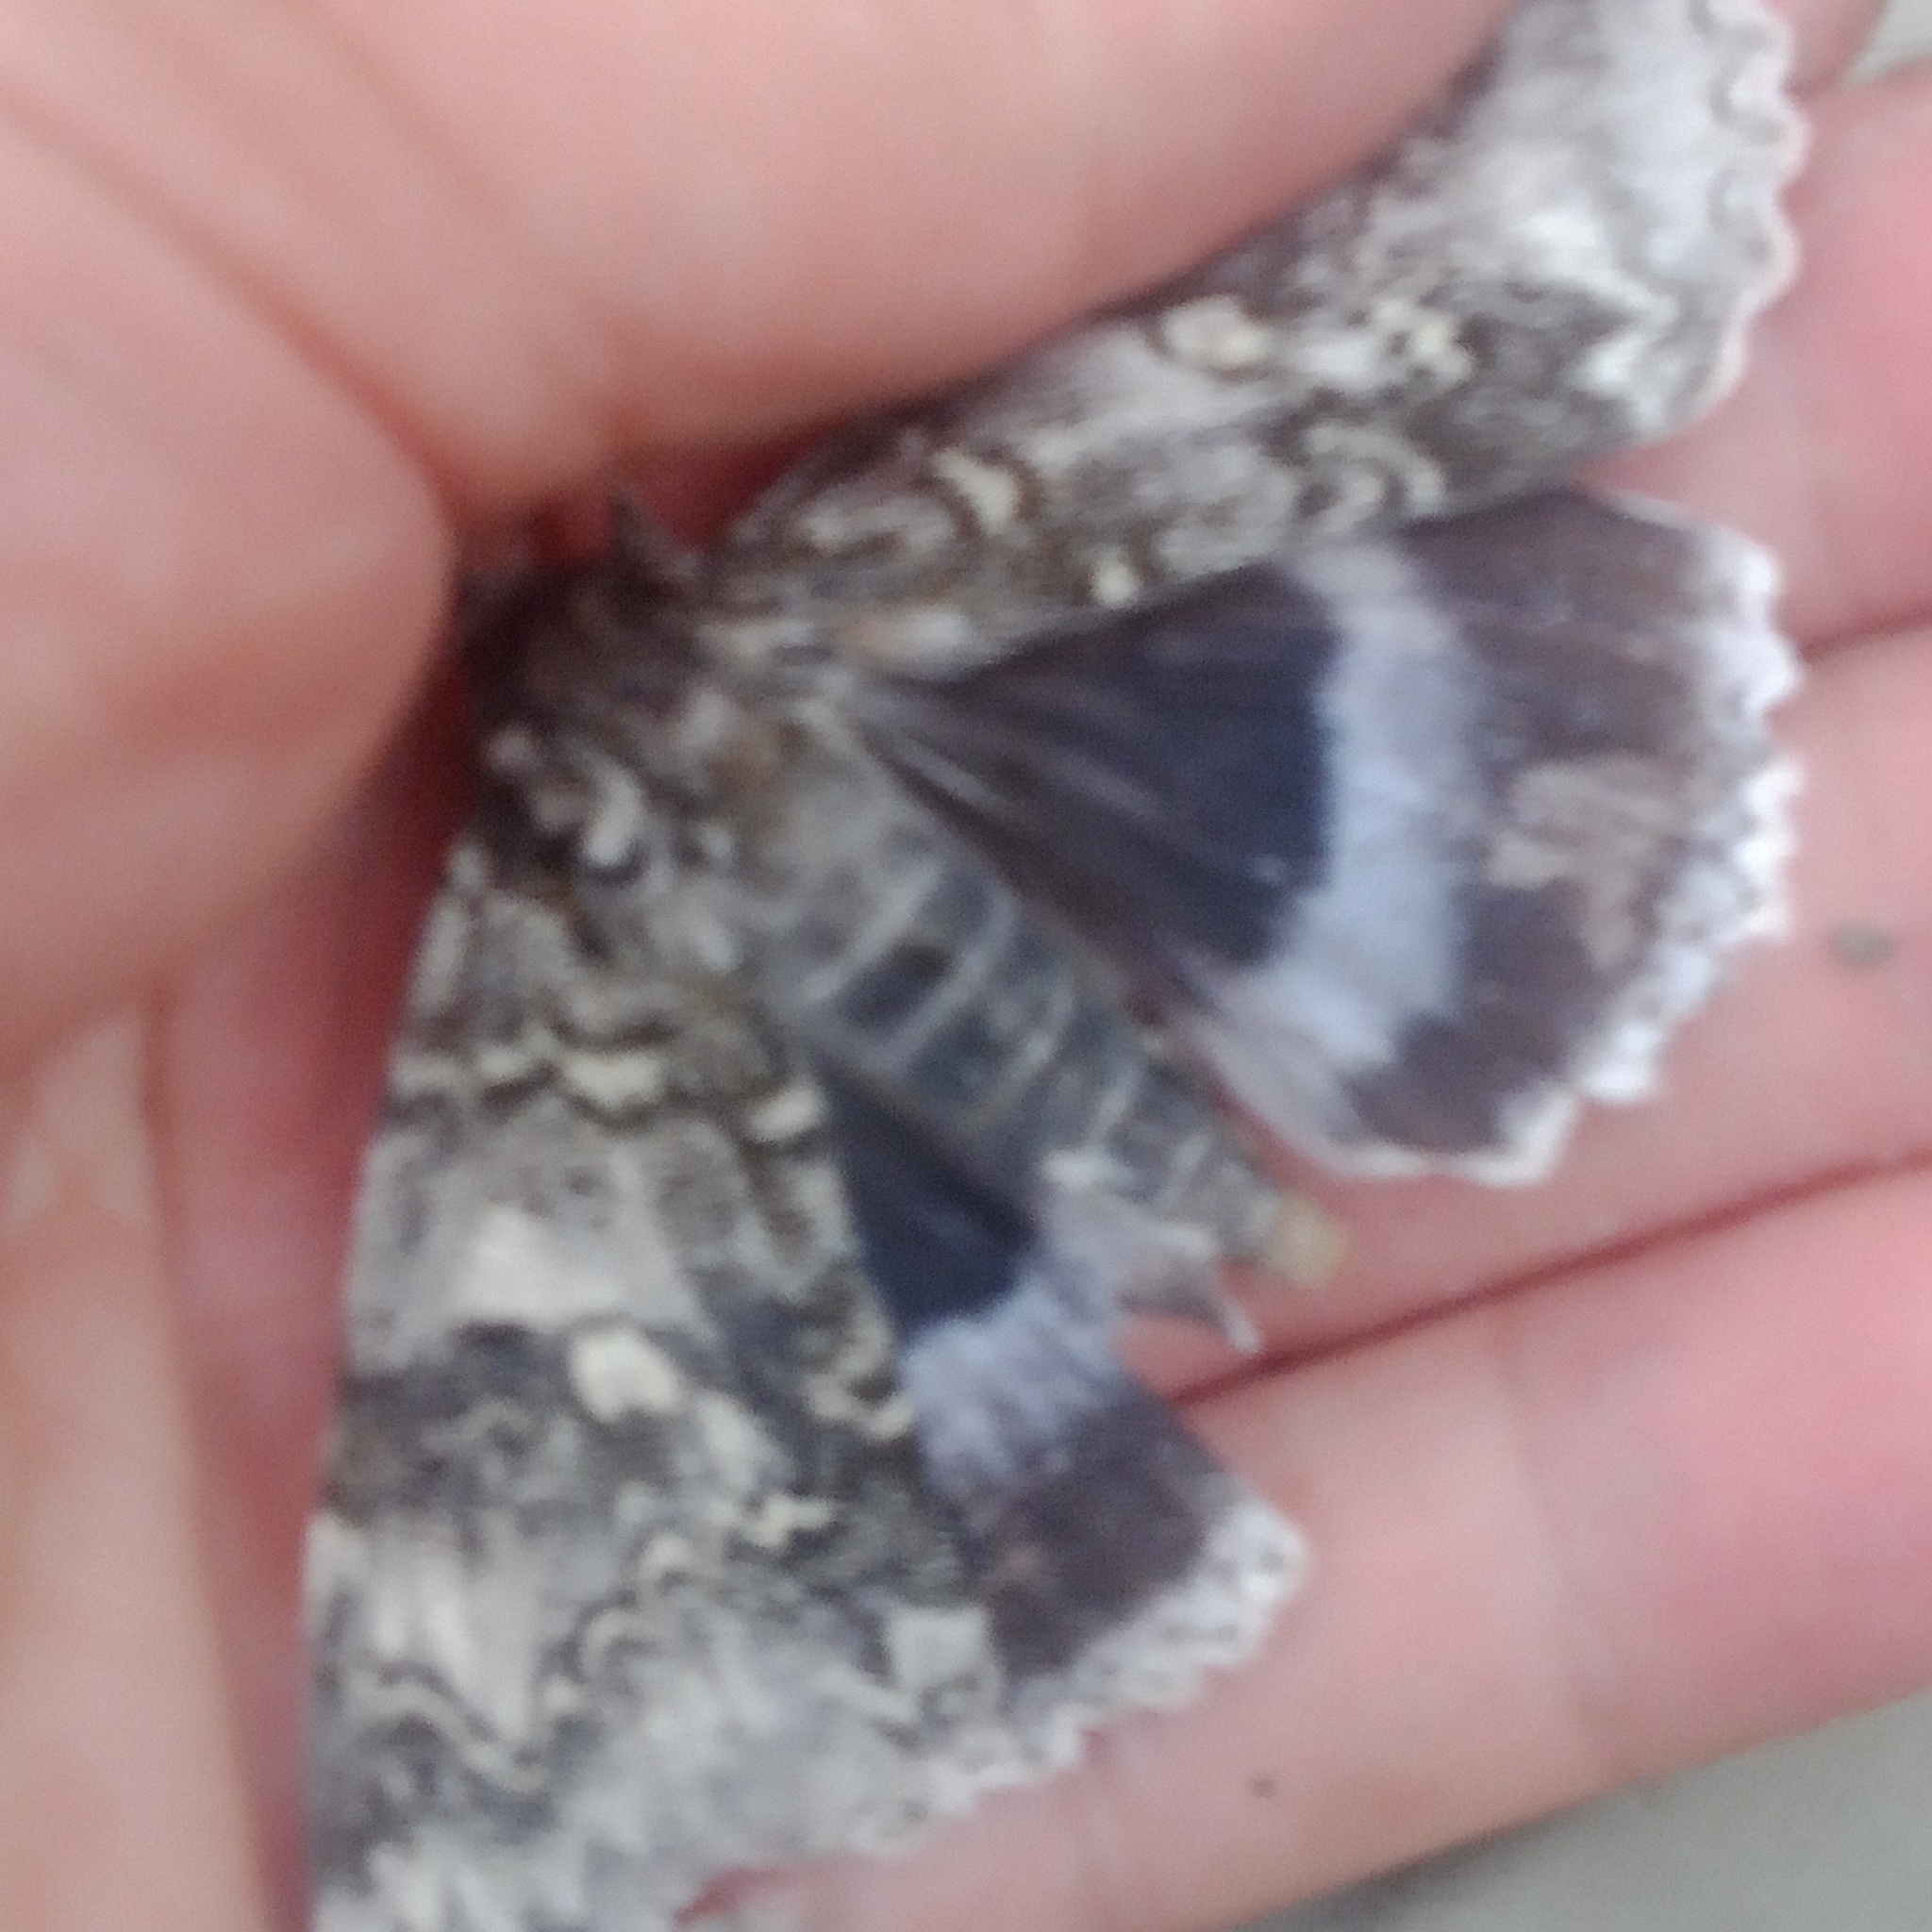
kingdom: Animalia
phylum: Arthropoda
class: Insecta
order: Lepidoptera
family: Erebidae
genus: Catocala
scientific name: Catocala fraxini
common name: Clifden nonpareil
